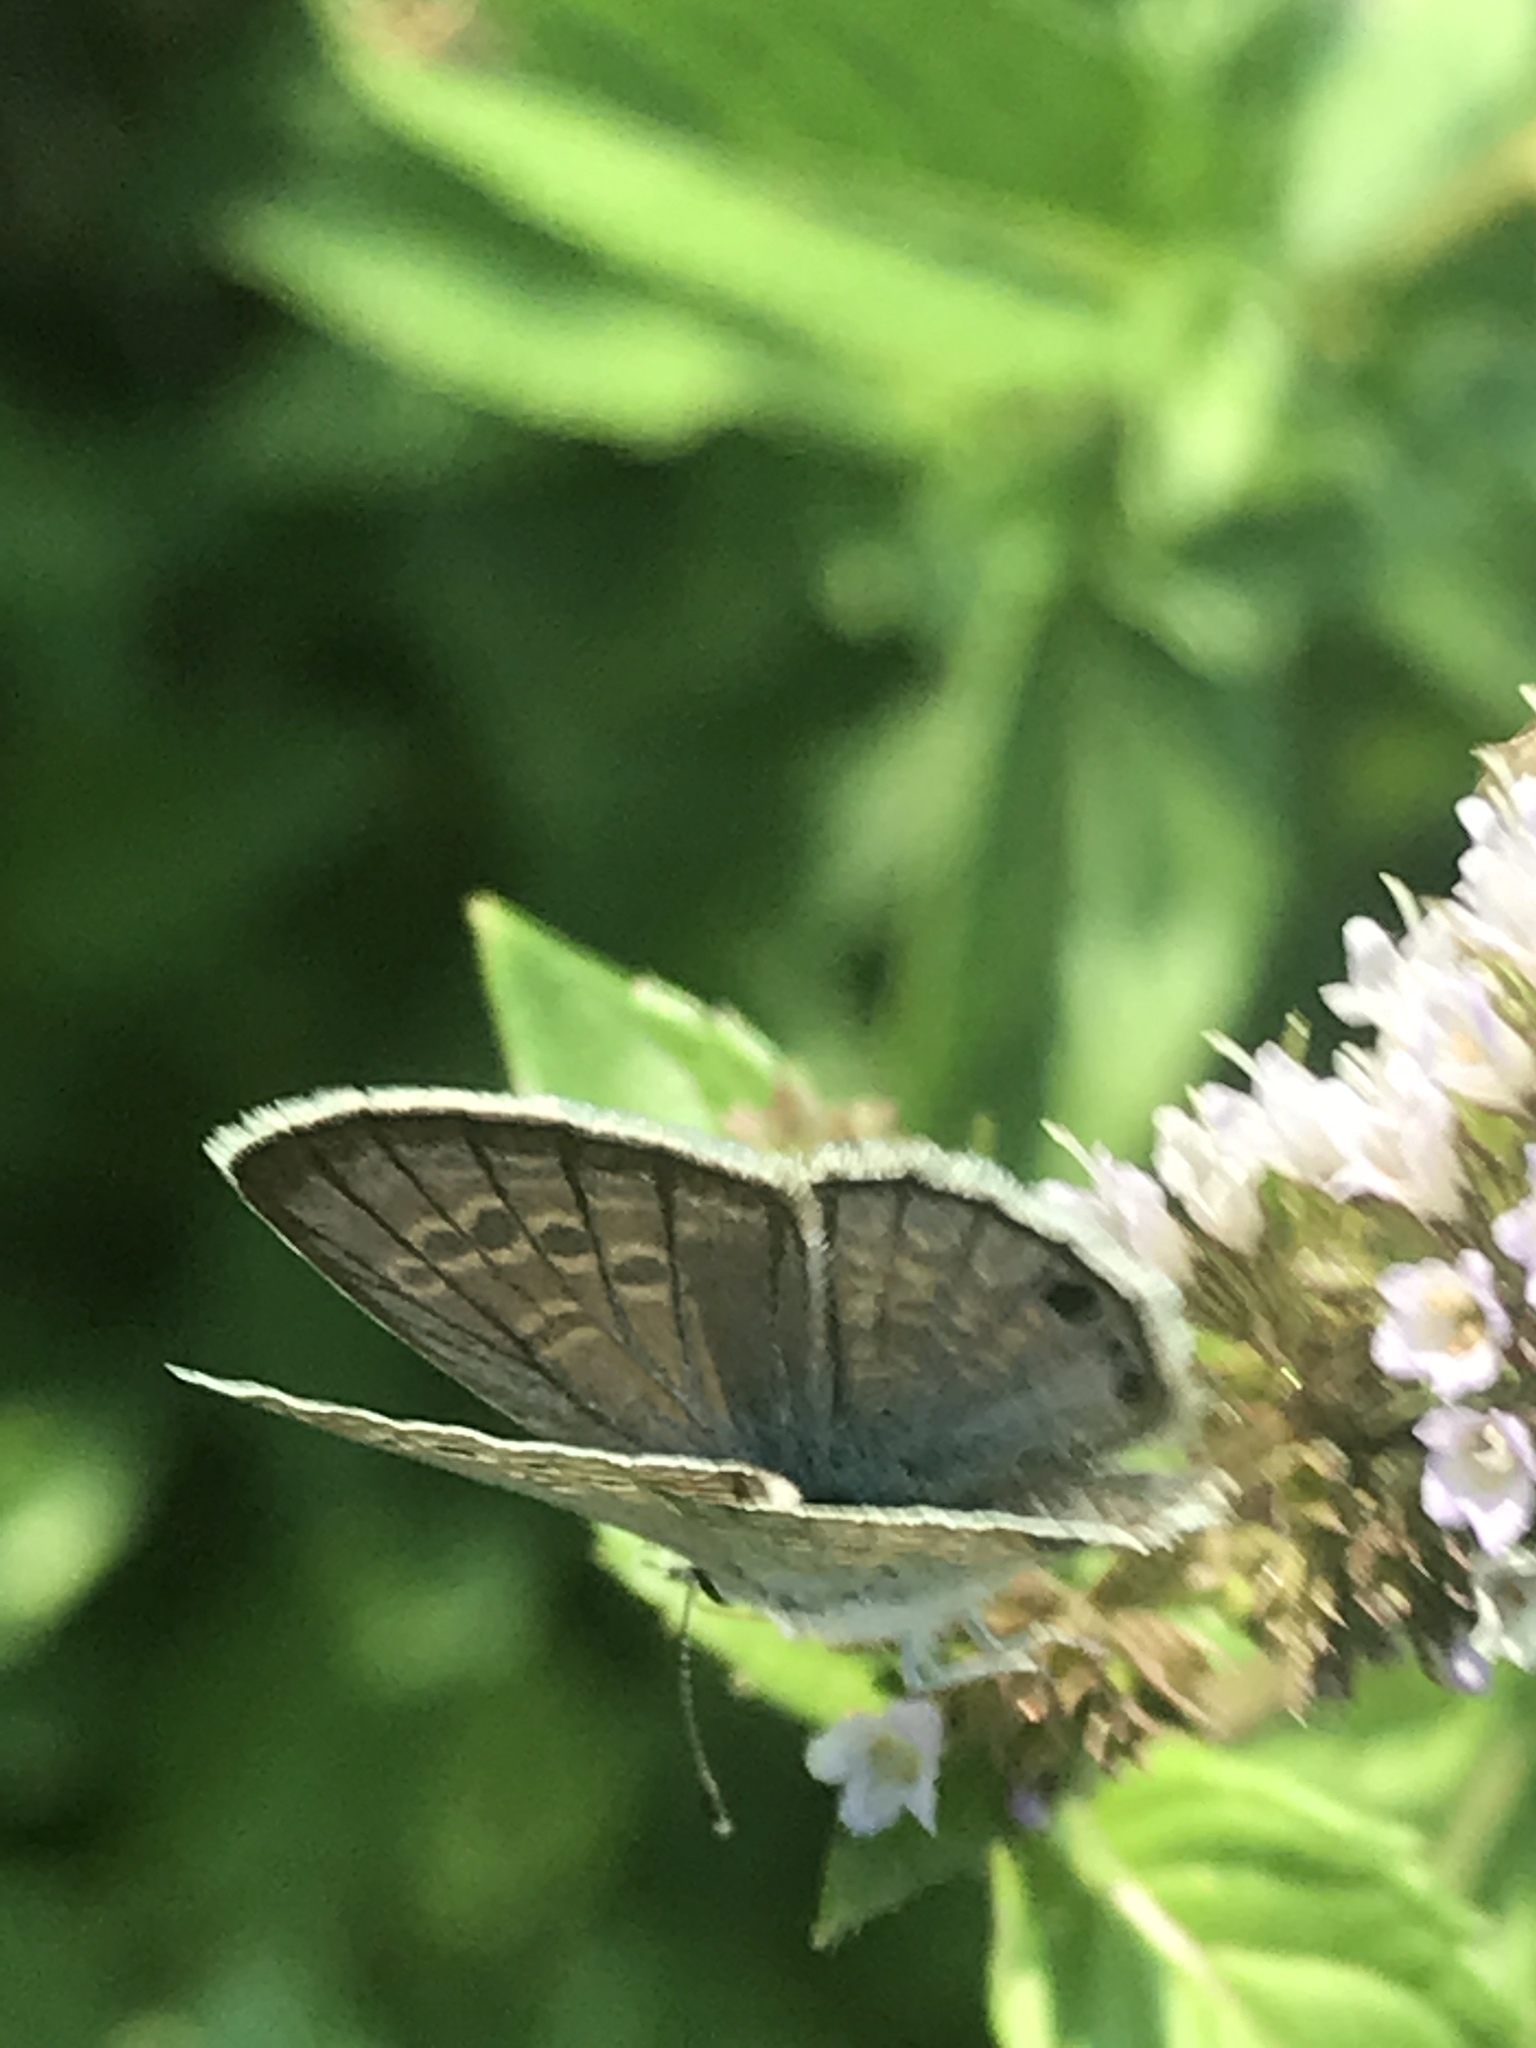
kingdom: Animalia
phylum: Arthropoda
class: Insecta
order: Lepidoptera
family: Lycaenidae
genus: Echinargus
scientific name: Echinargus isola
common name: Reakirt's blue
